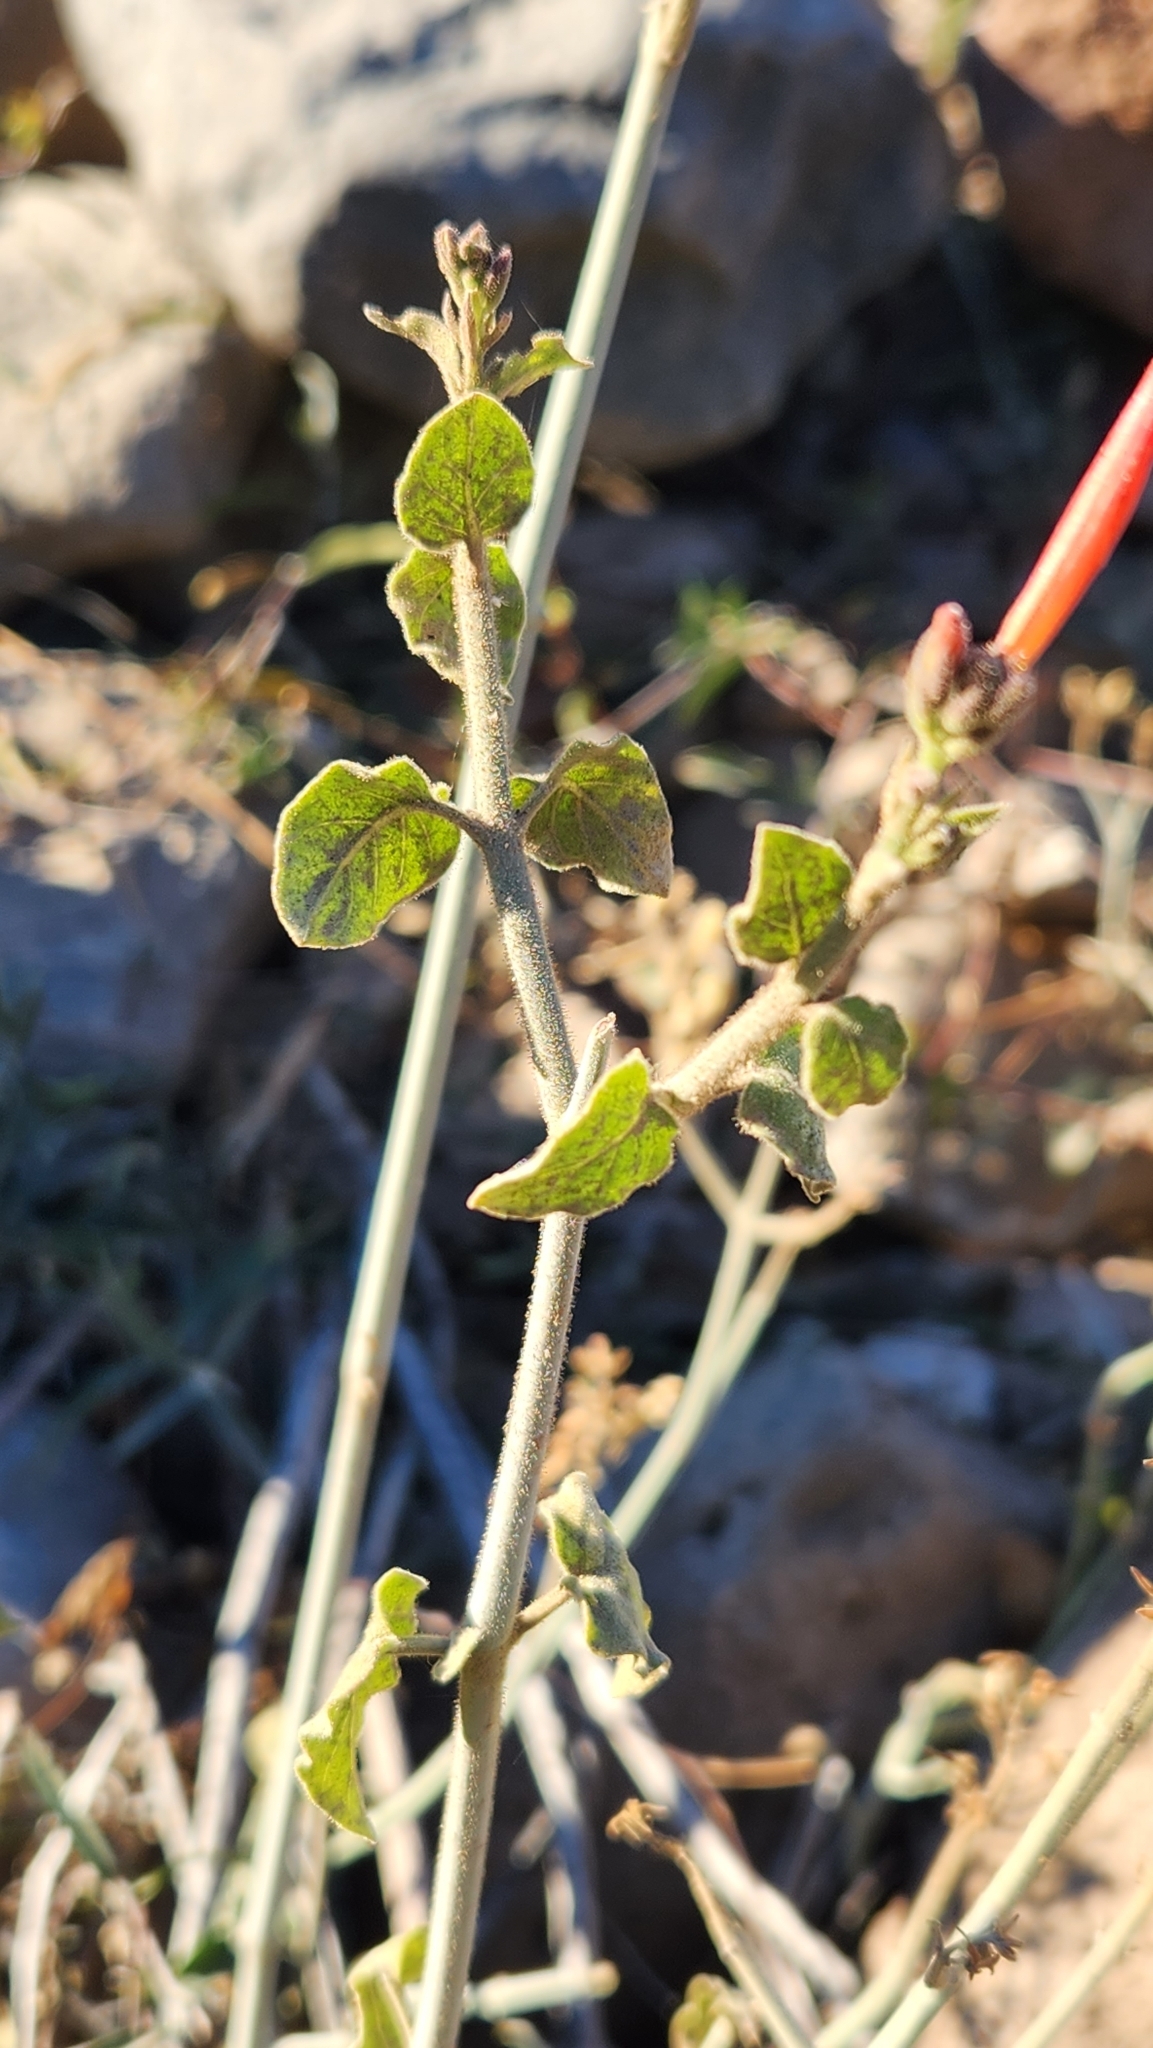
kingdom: Plantae
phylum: Tracheophyta
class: Magnoliopsida
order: Lamiales
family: Acanthaceae
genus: Justicia
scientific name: Justicia californica
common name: Chuparosa-honeysuckle
